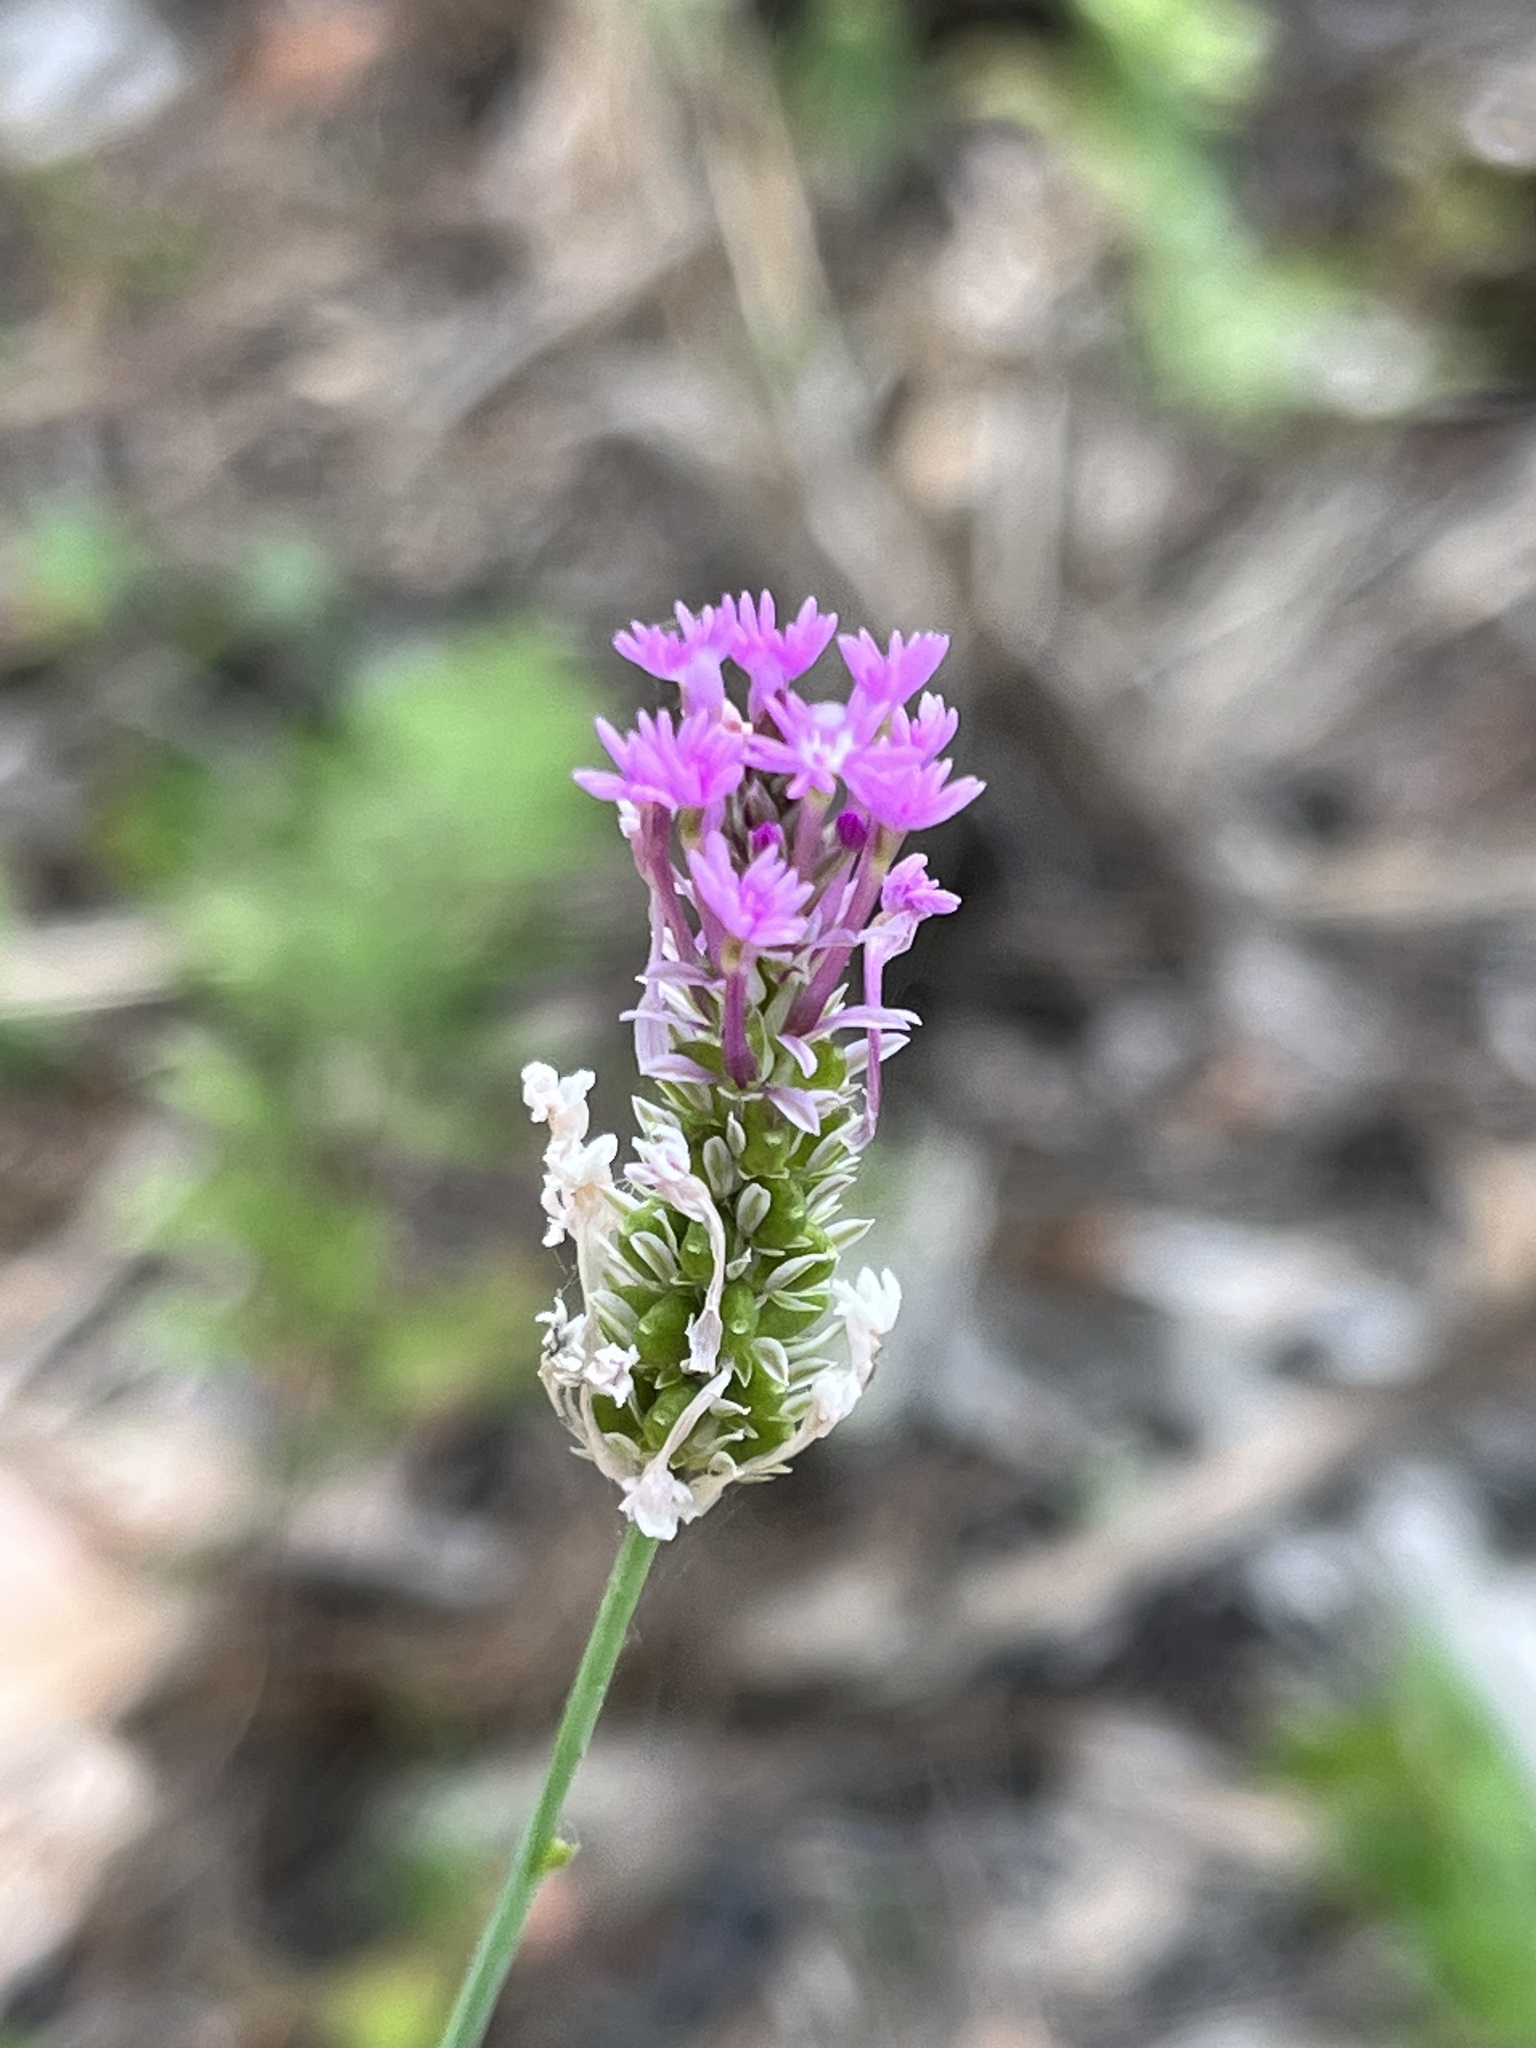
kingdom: Plantae
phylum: Tracheophyta
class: Magnoliopsida
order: Fabales
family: Polygalaceae
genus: Polygala
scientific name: Polygala incarnata
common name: Pink milkwort
